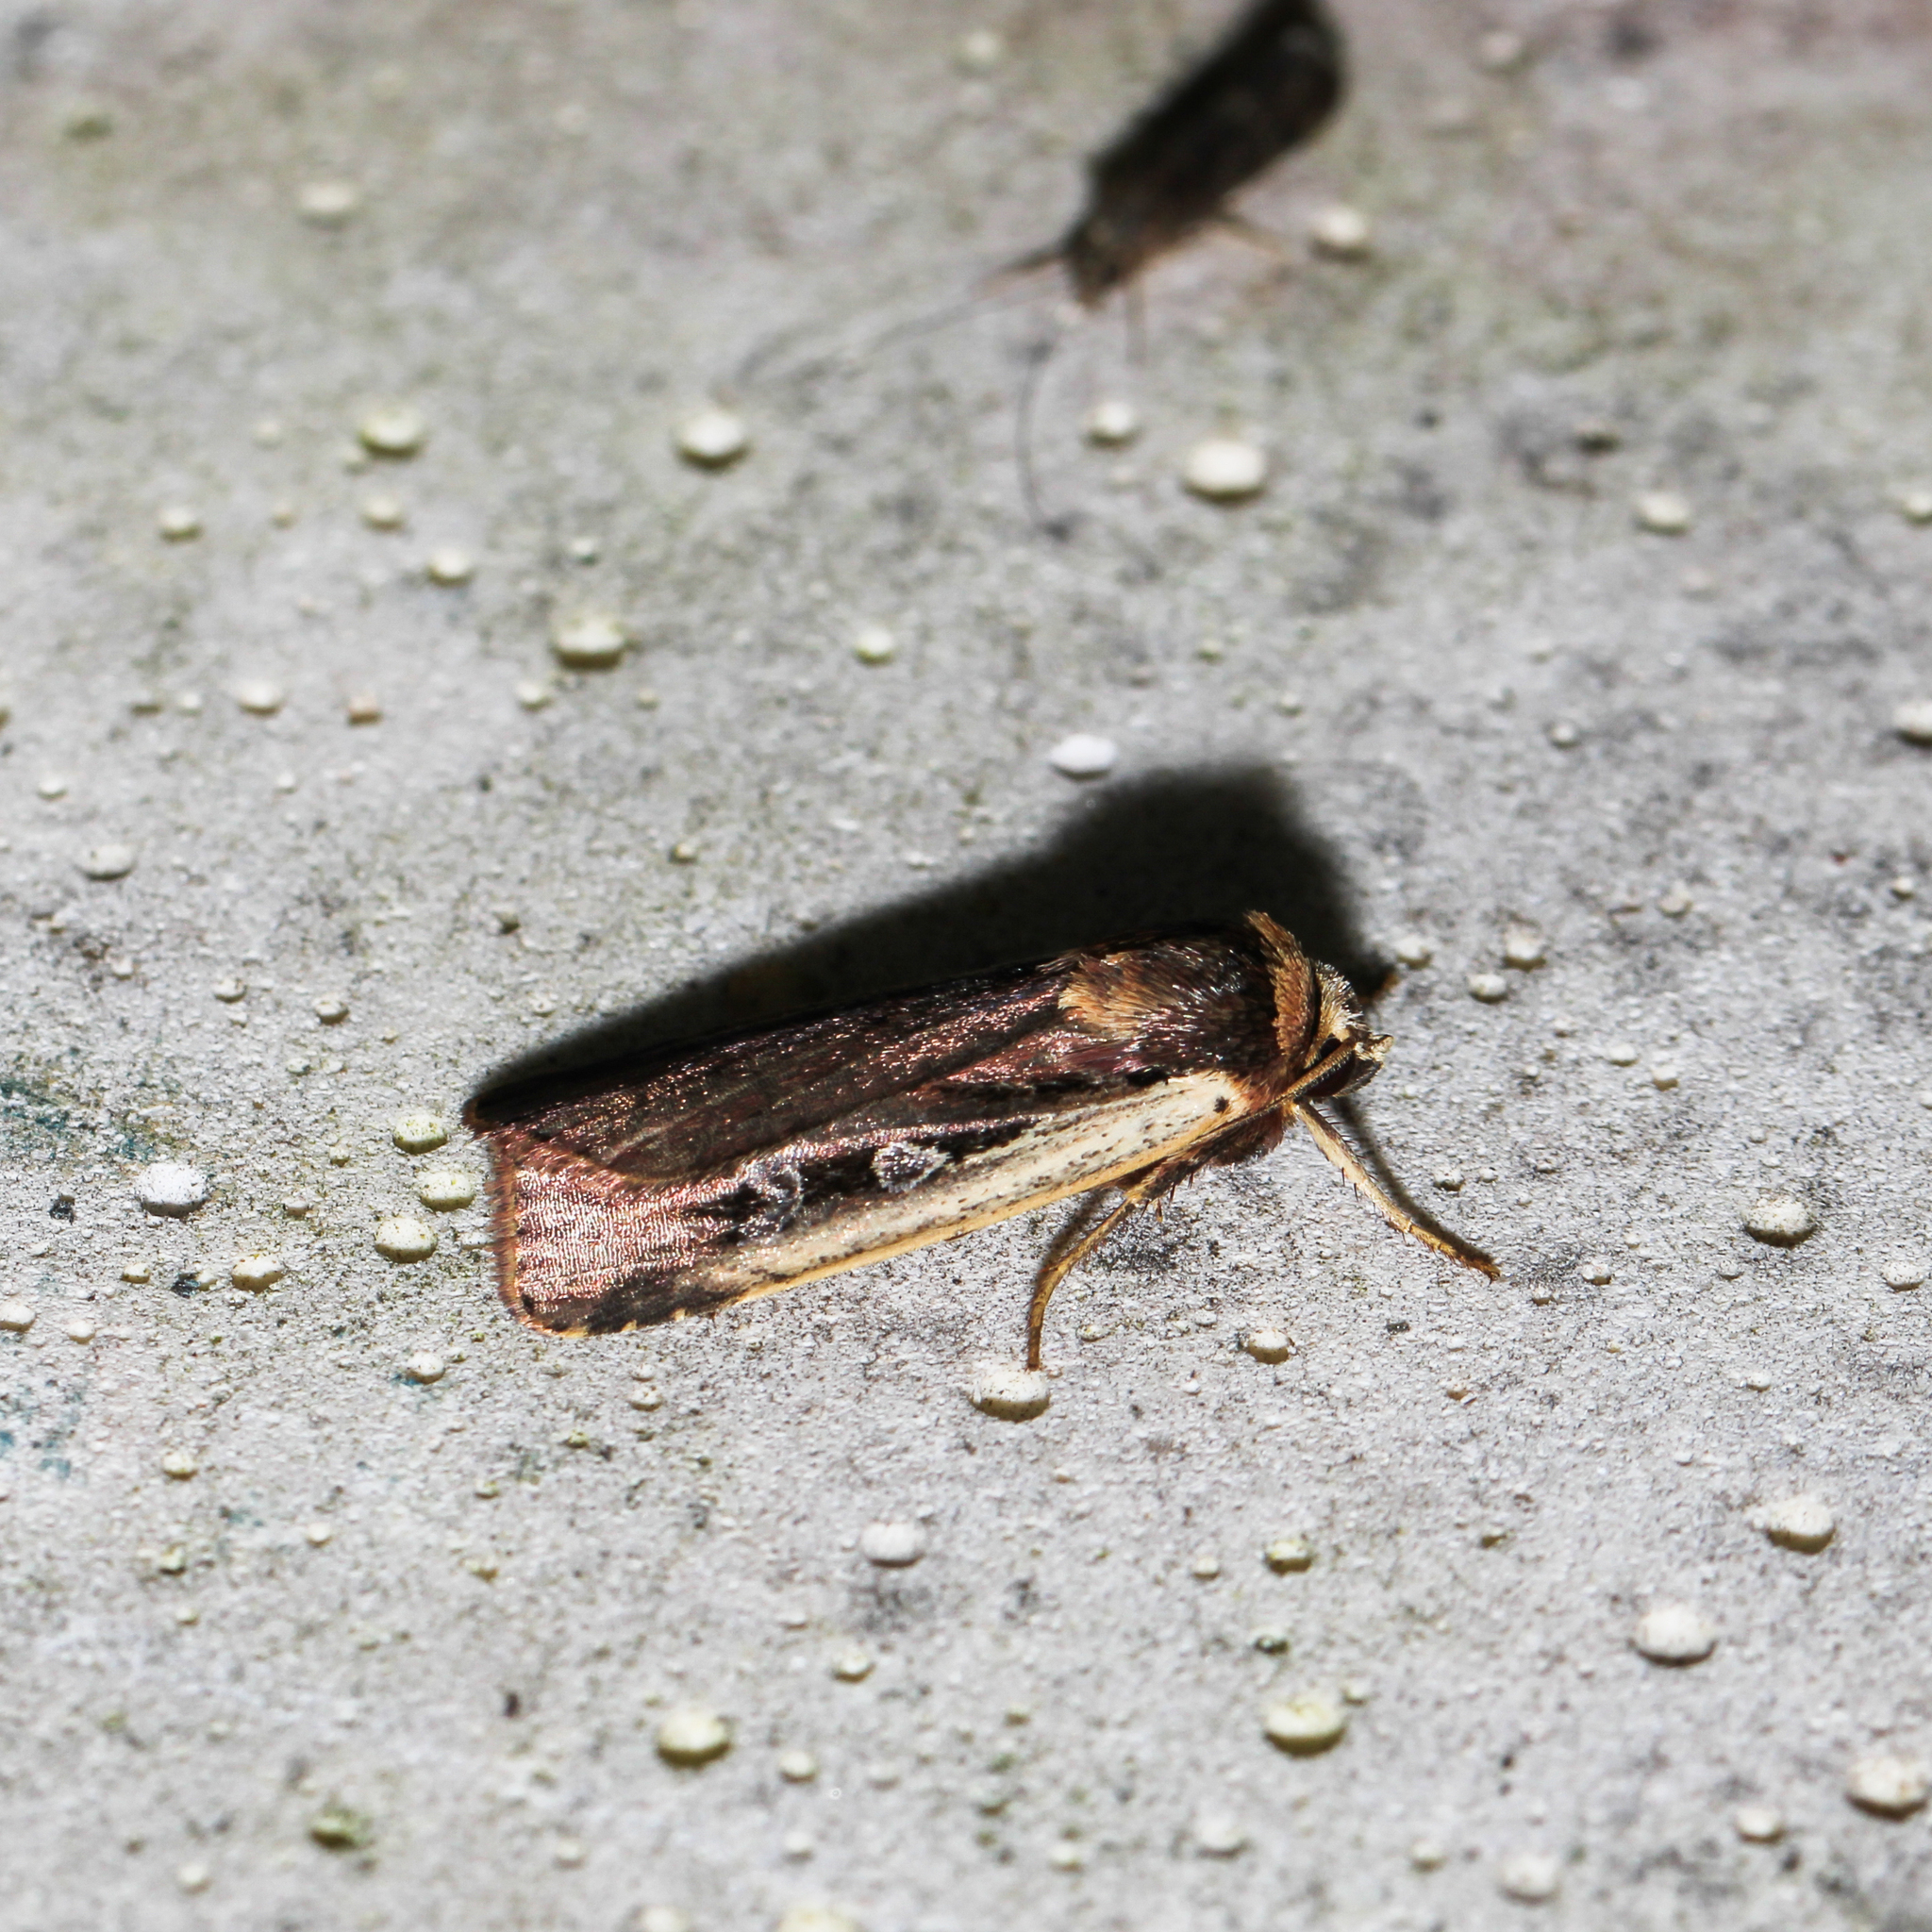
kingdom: Animalia
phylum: Arthropoda
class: Insecta
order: Lepidoptera
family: Noctuidae
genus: Ochropleura
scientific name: Ochropleura implecta
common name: Flame-shouldered dart
